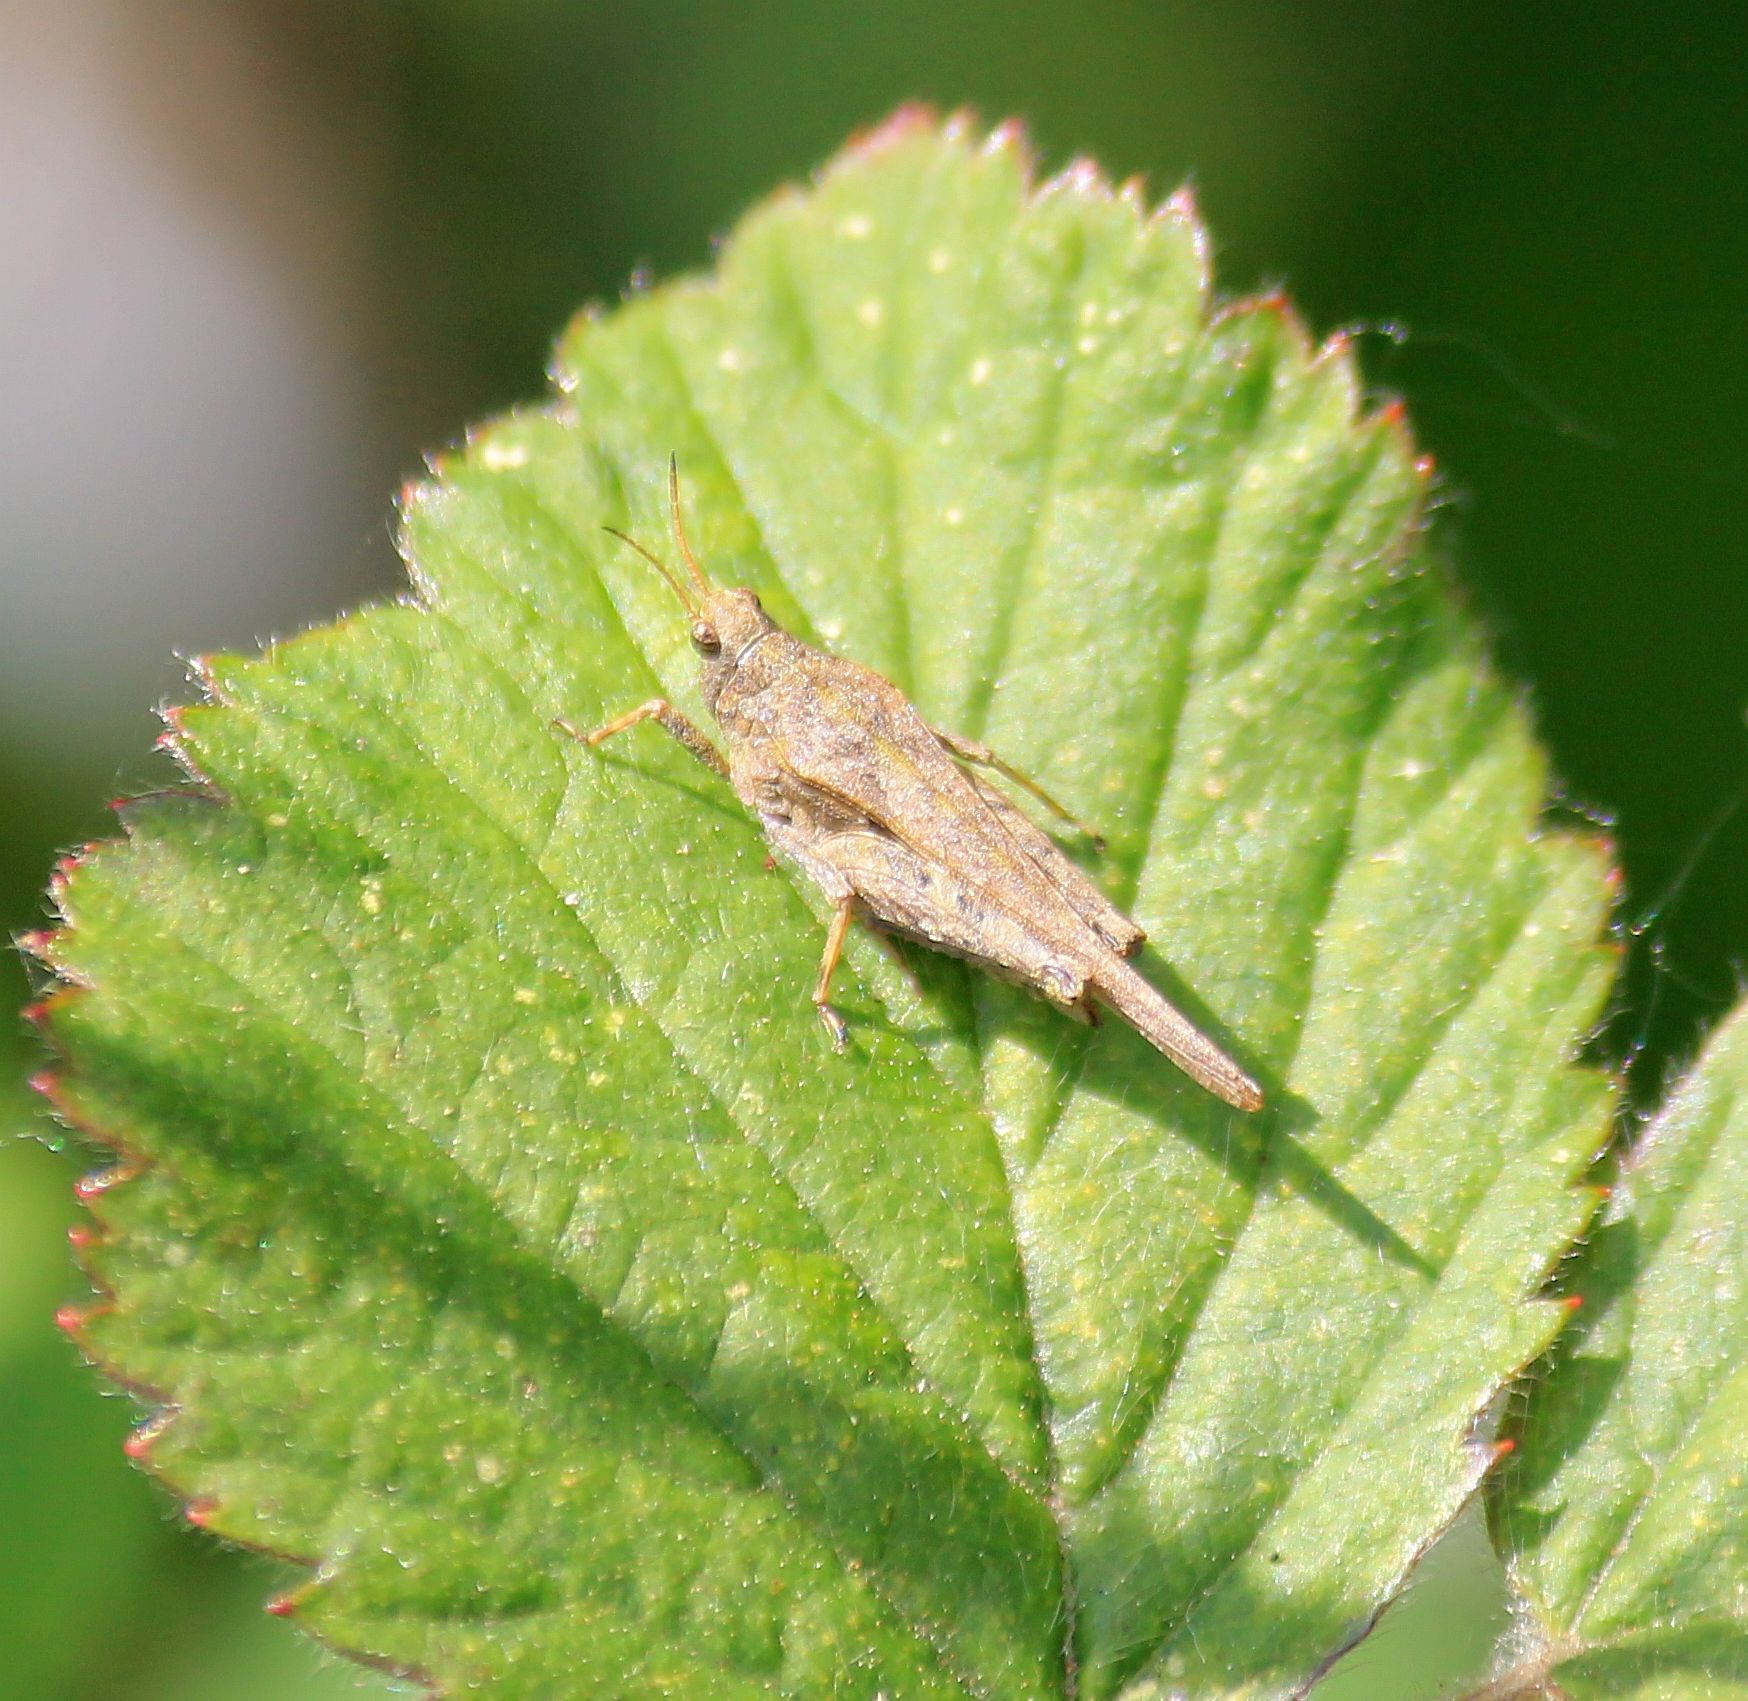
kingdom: Animalia
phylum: Arthropoda
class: Insecta
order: Orthoptera
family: Tetrigidae
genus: Tetrix
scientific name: Tetrix subulata
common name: Slender ground-hopper
